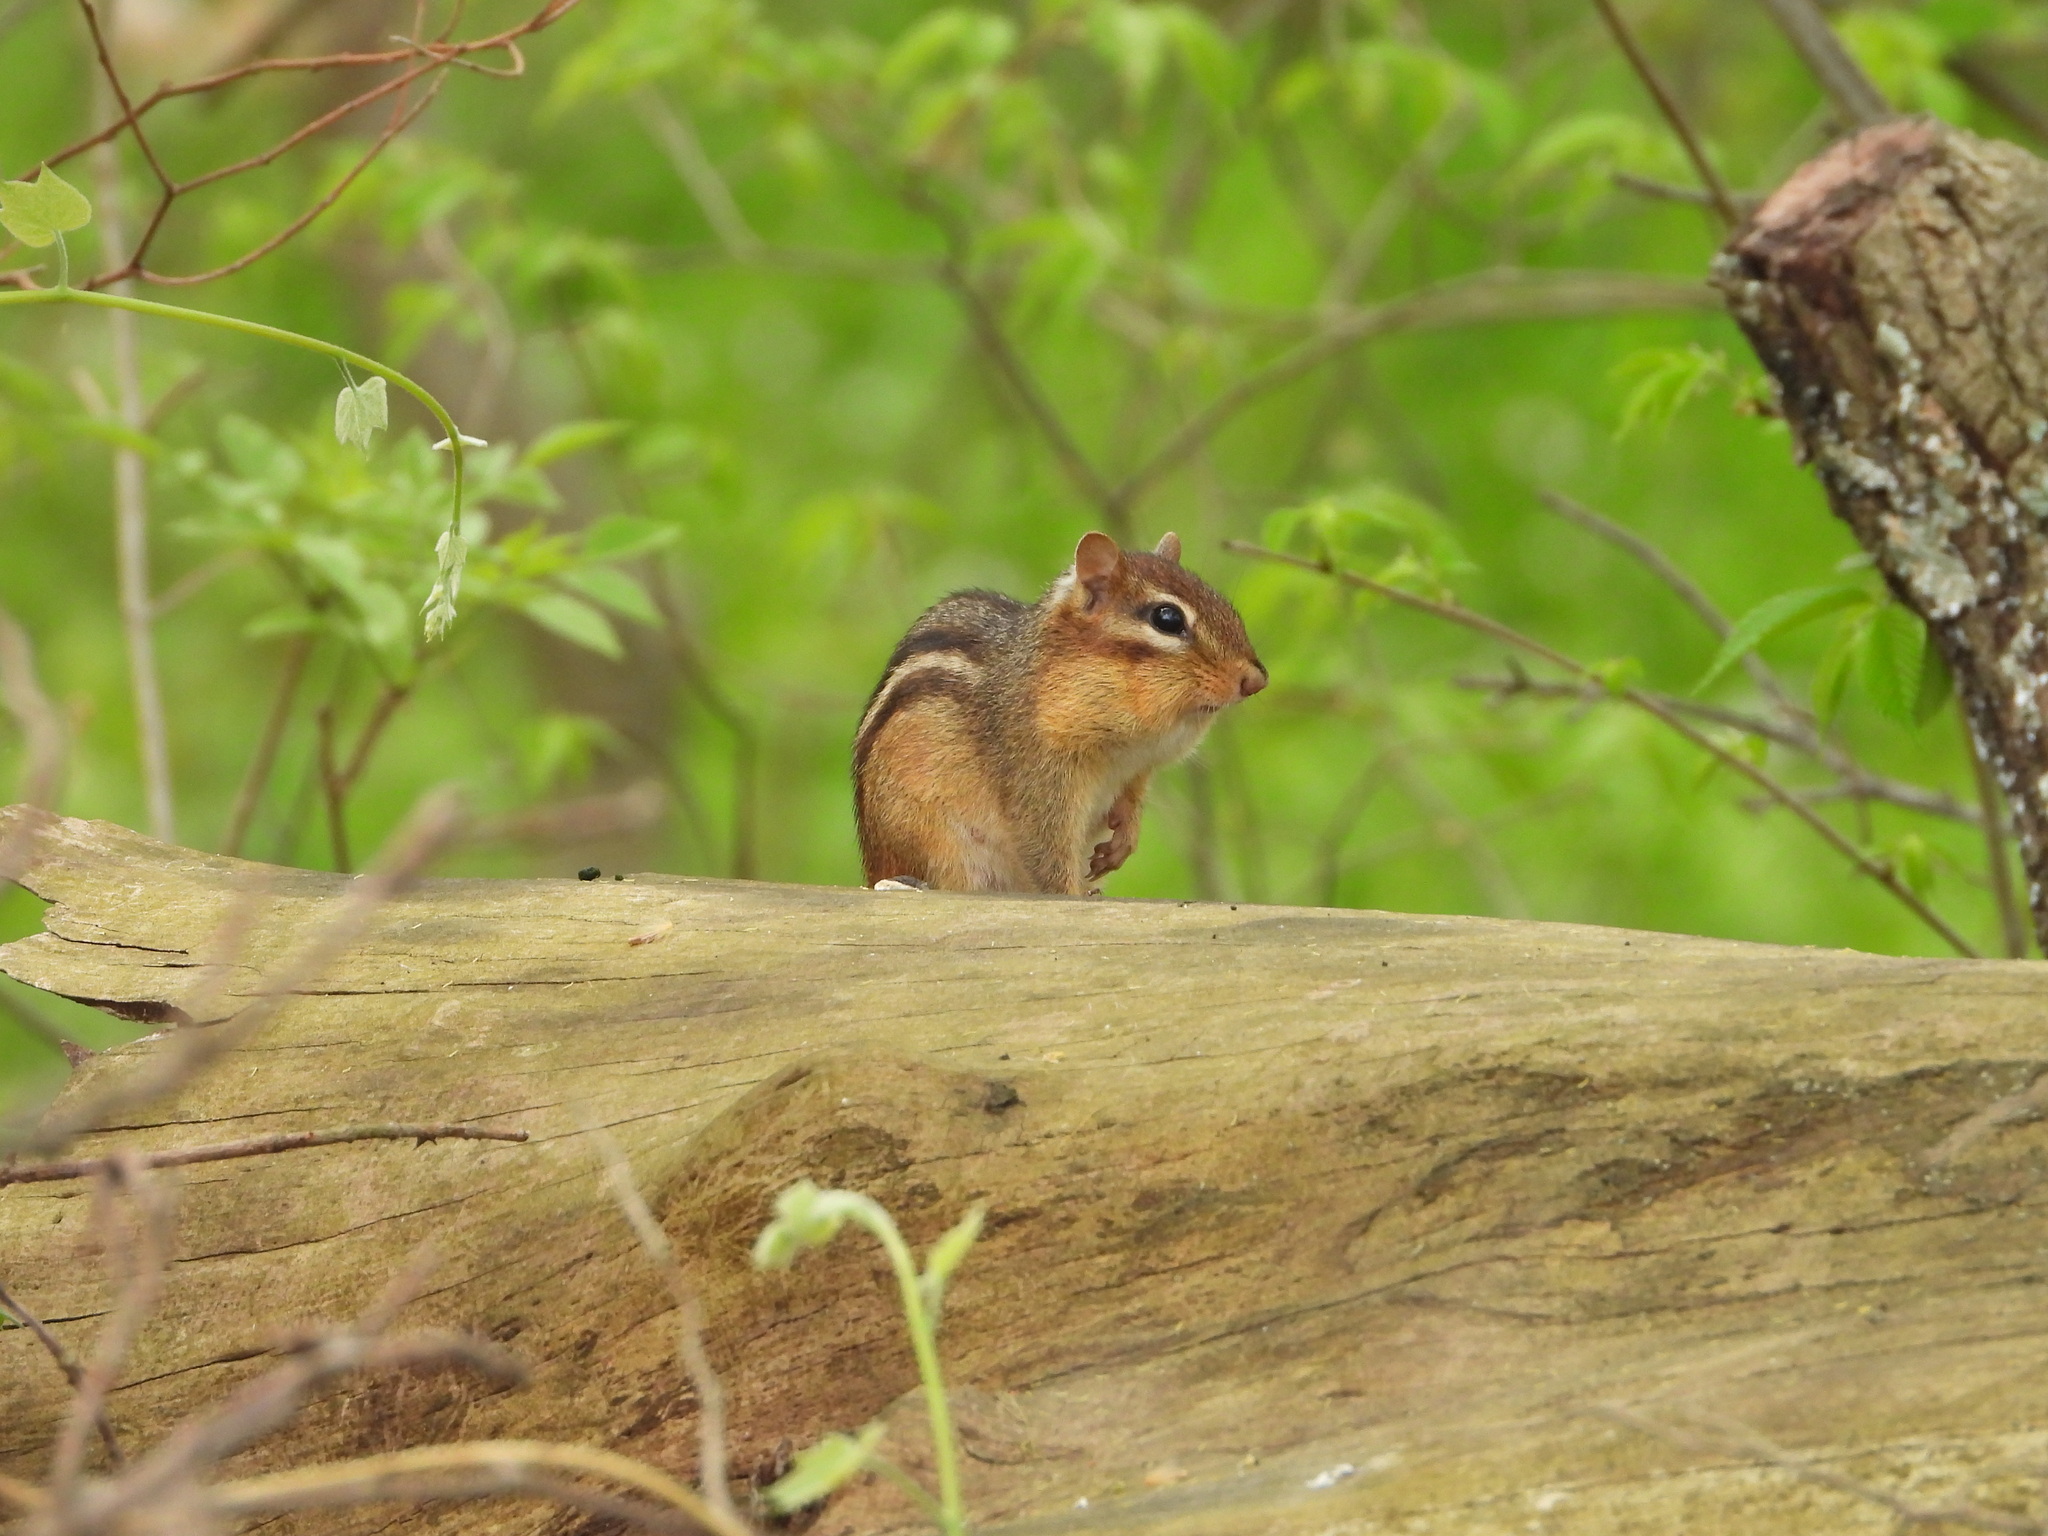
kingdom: Animalia
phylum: Chordata
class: Mammalia
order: Rodentia
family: Sciuridae
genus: Tamias
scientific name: Tamias striatus
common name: Eastern chipmunk
